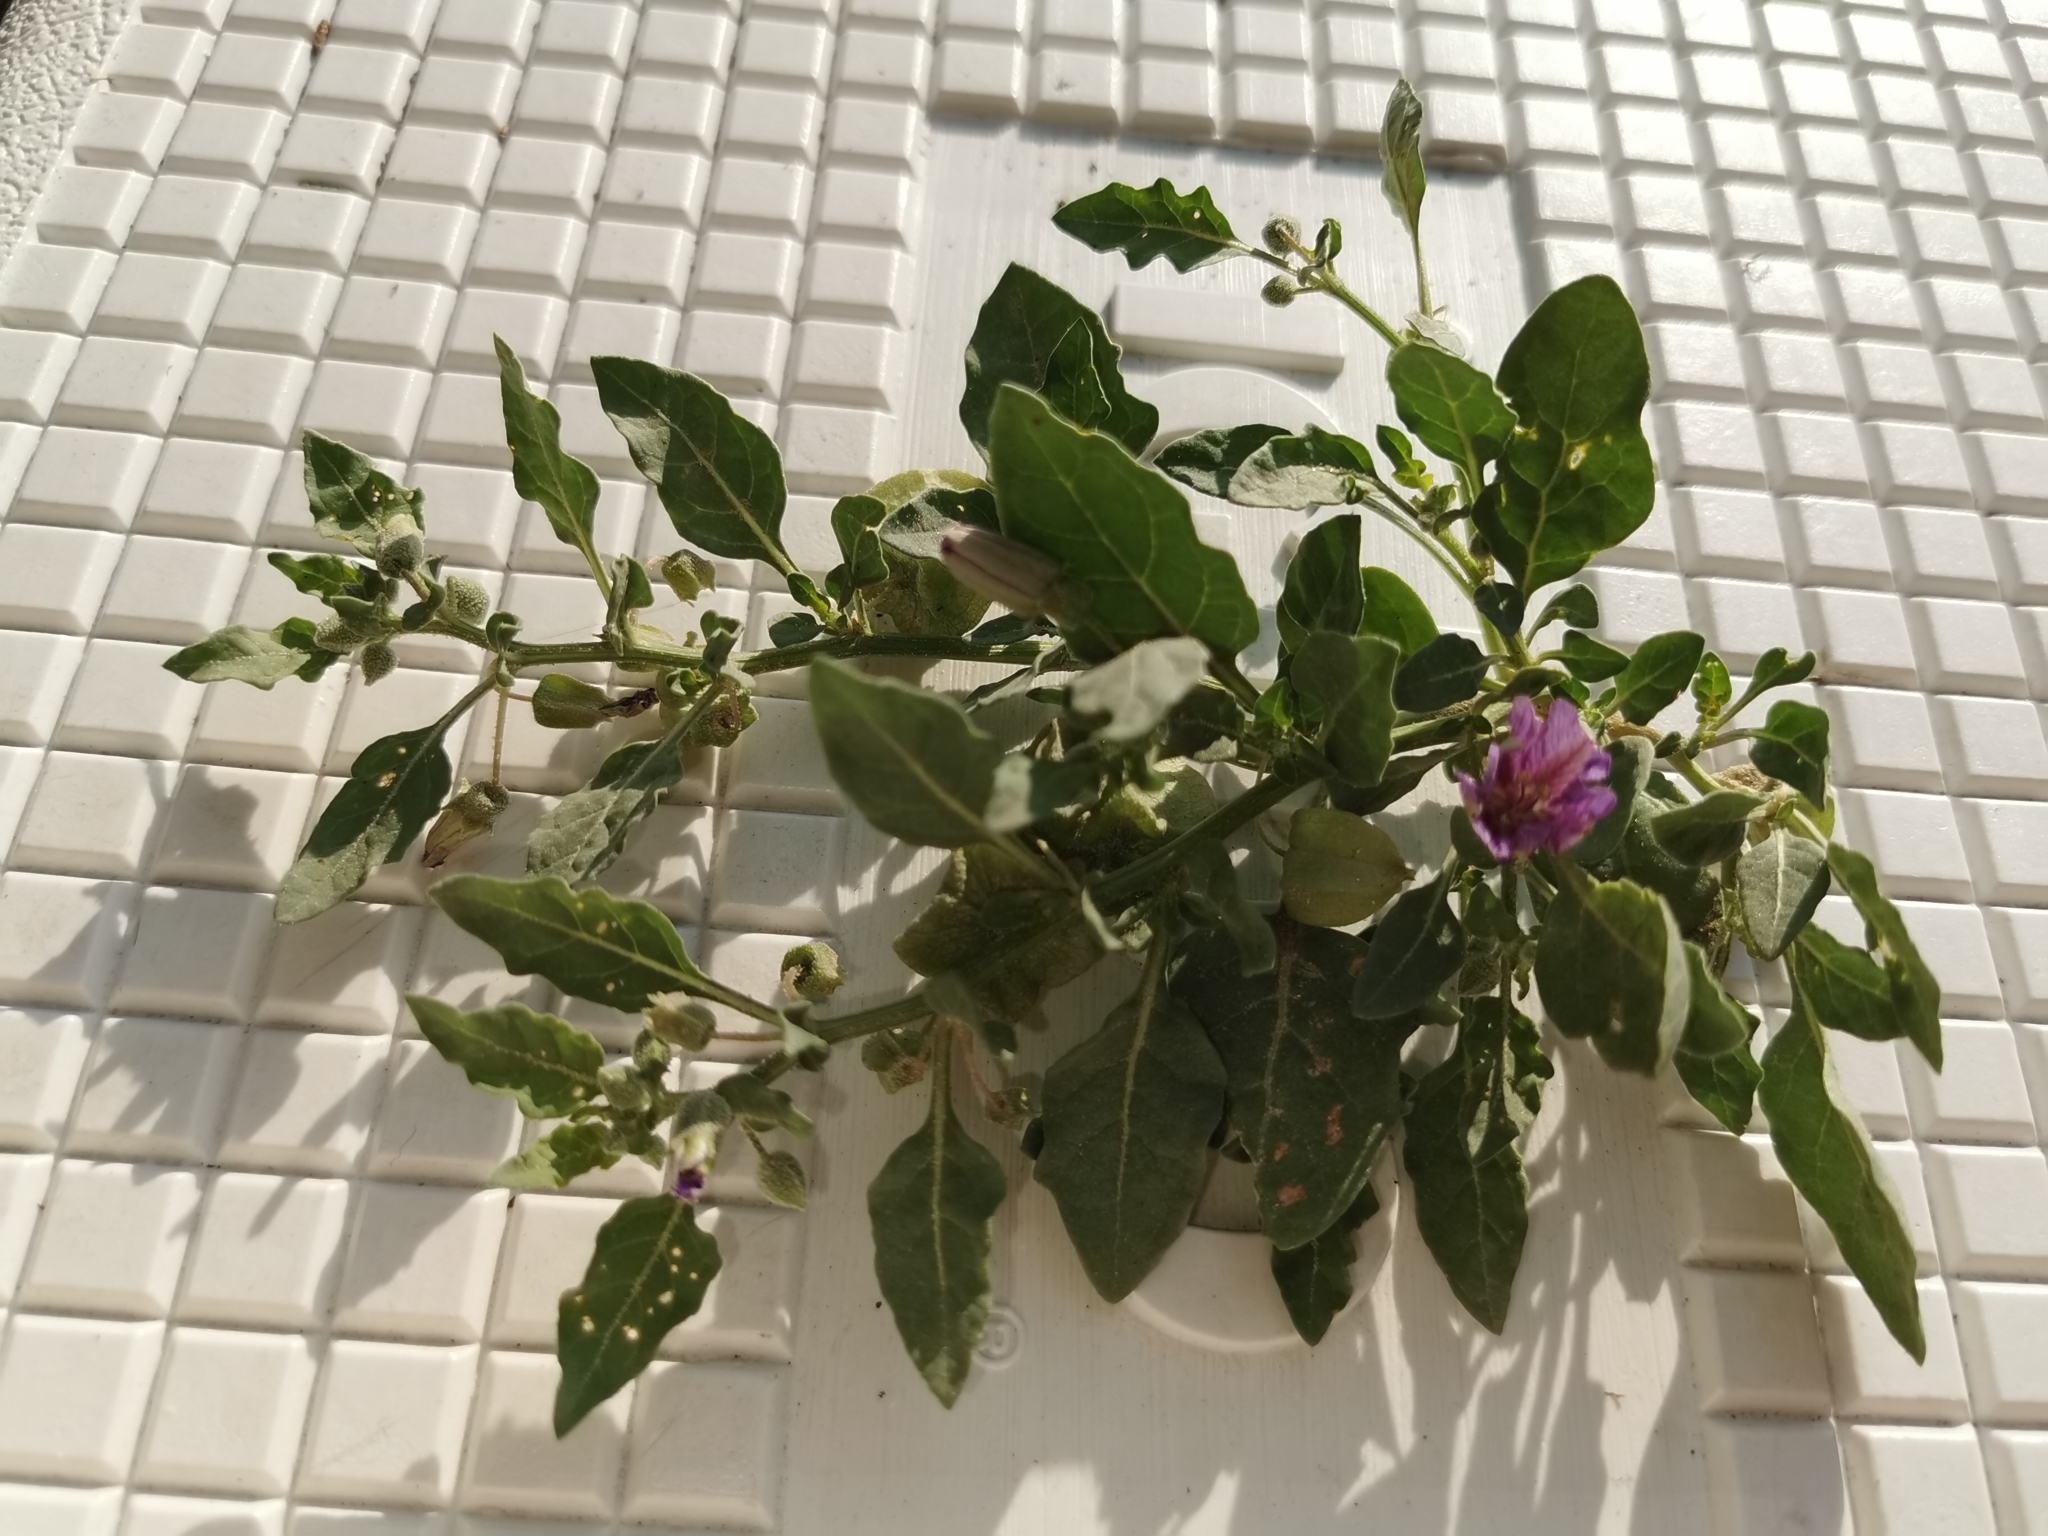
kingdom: Plantae
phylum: Tracheophyta
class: Magnoliopsida
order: Solanales
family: Solanaceae
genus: Quincula
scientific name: Quincula lobata
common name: Purple-ground-cherry
